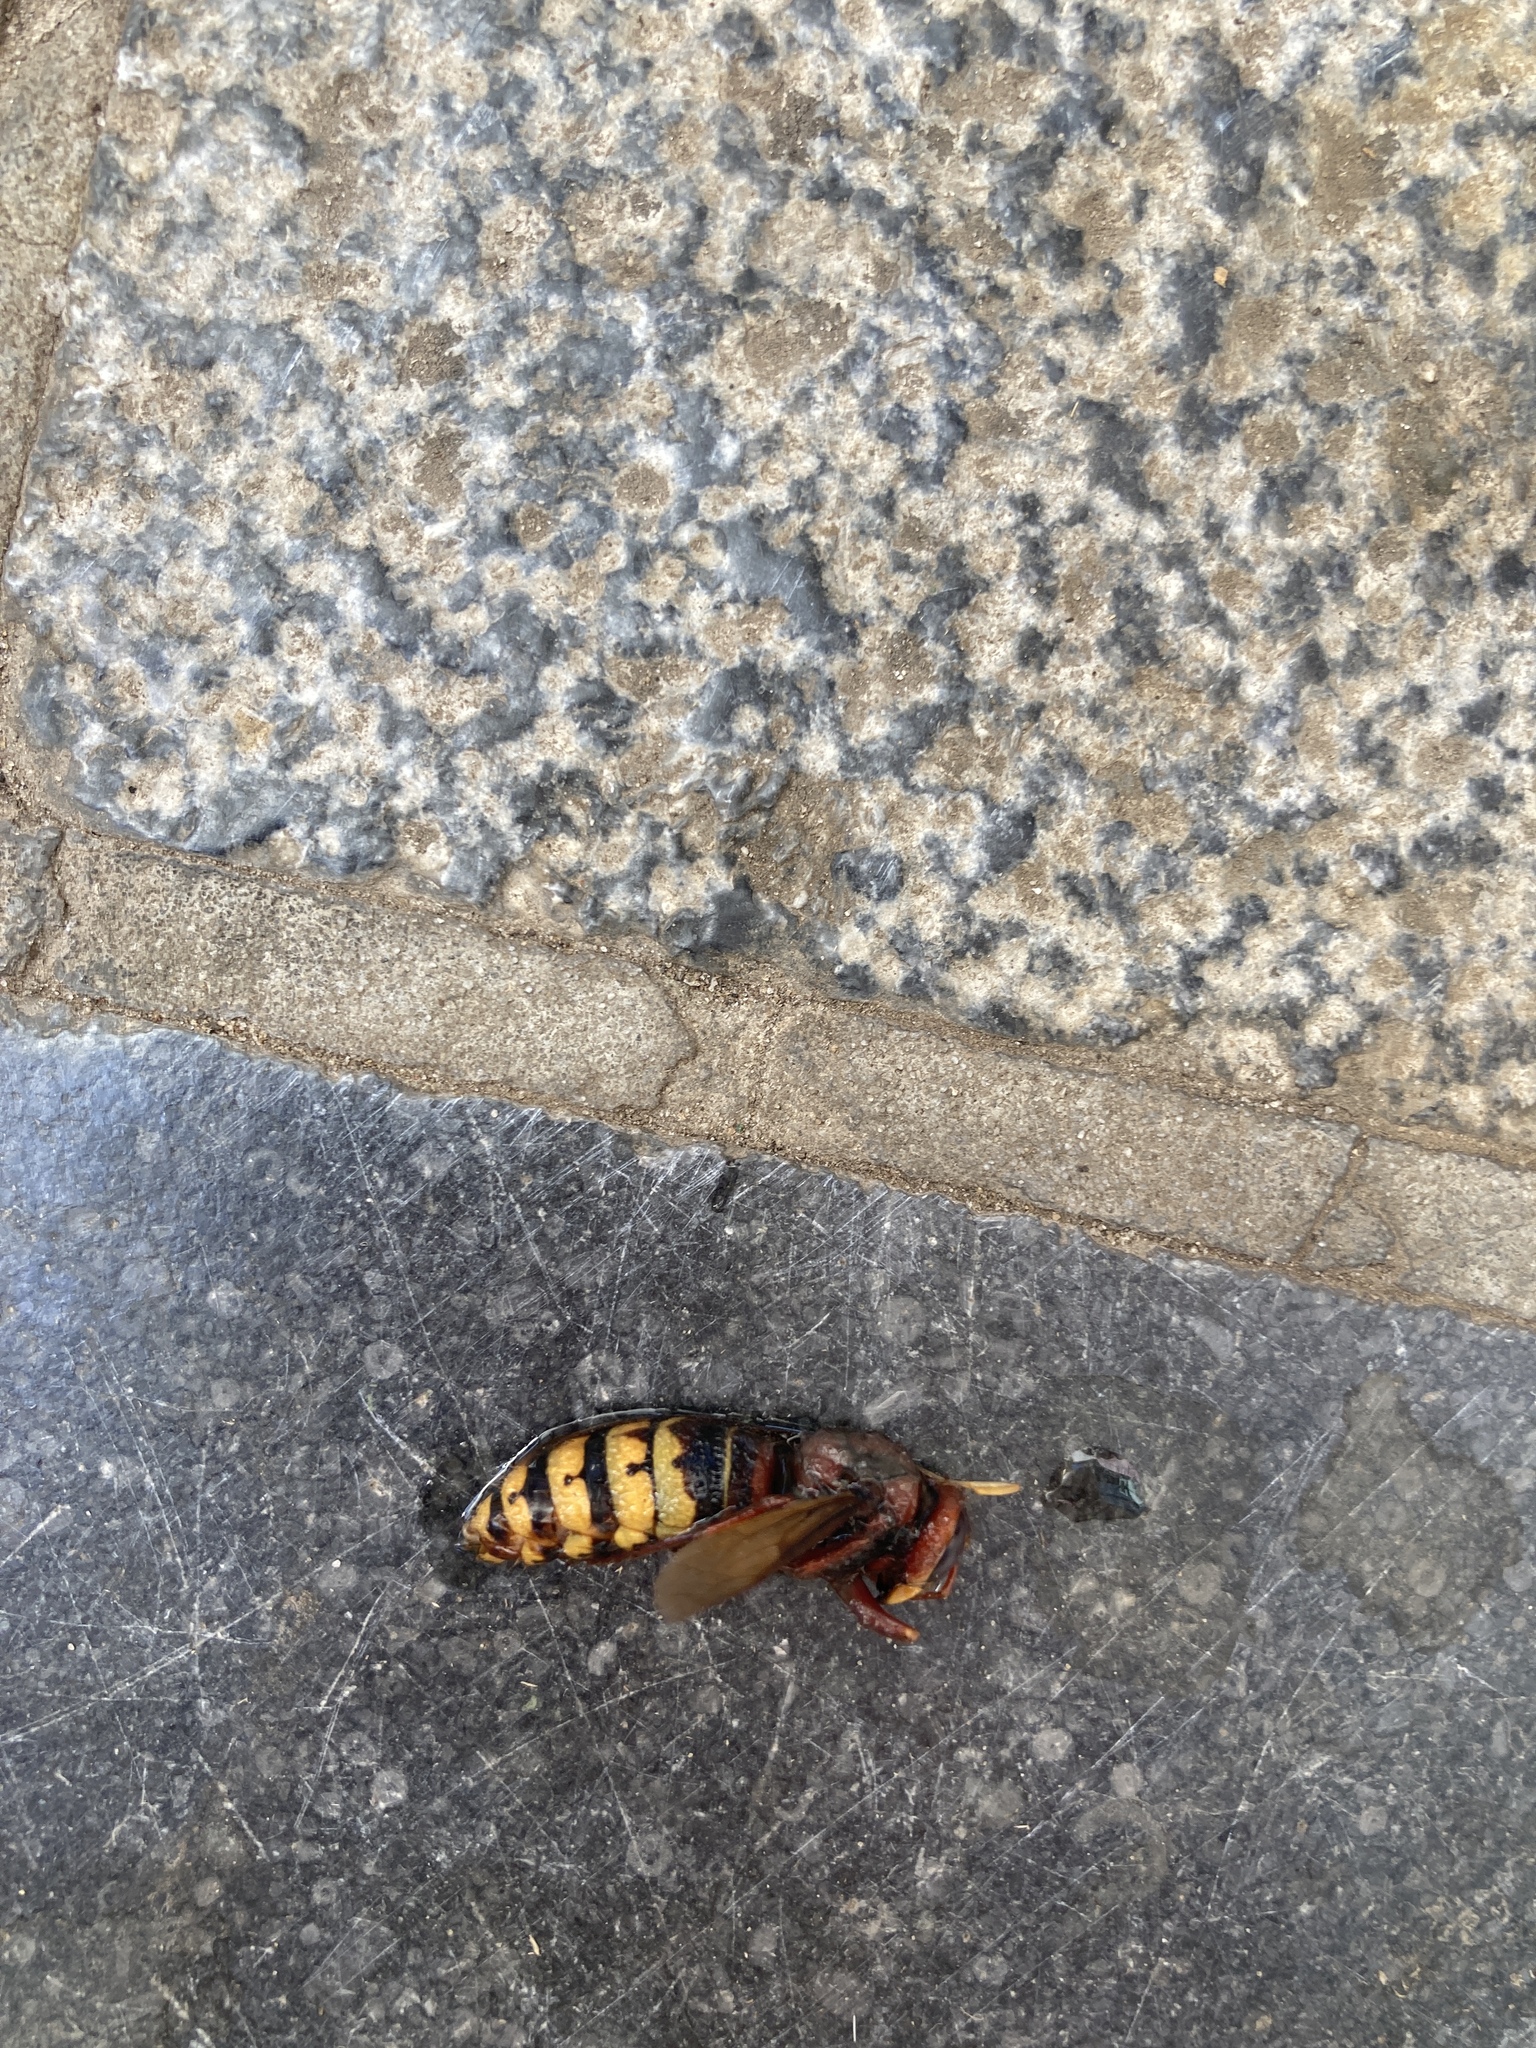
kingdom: Animalia
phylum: Arthropoda
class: Insecta
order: Hymenoptera
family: Vespidae
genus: Vespa
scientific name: Vespa crabro
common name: Hornet
